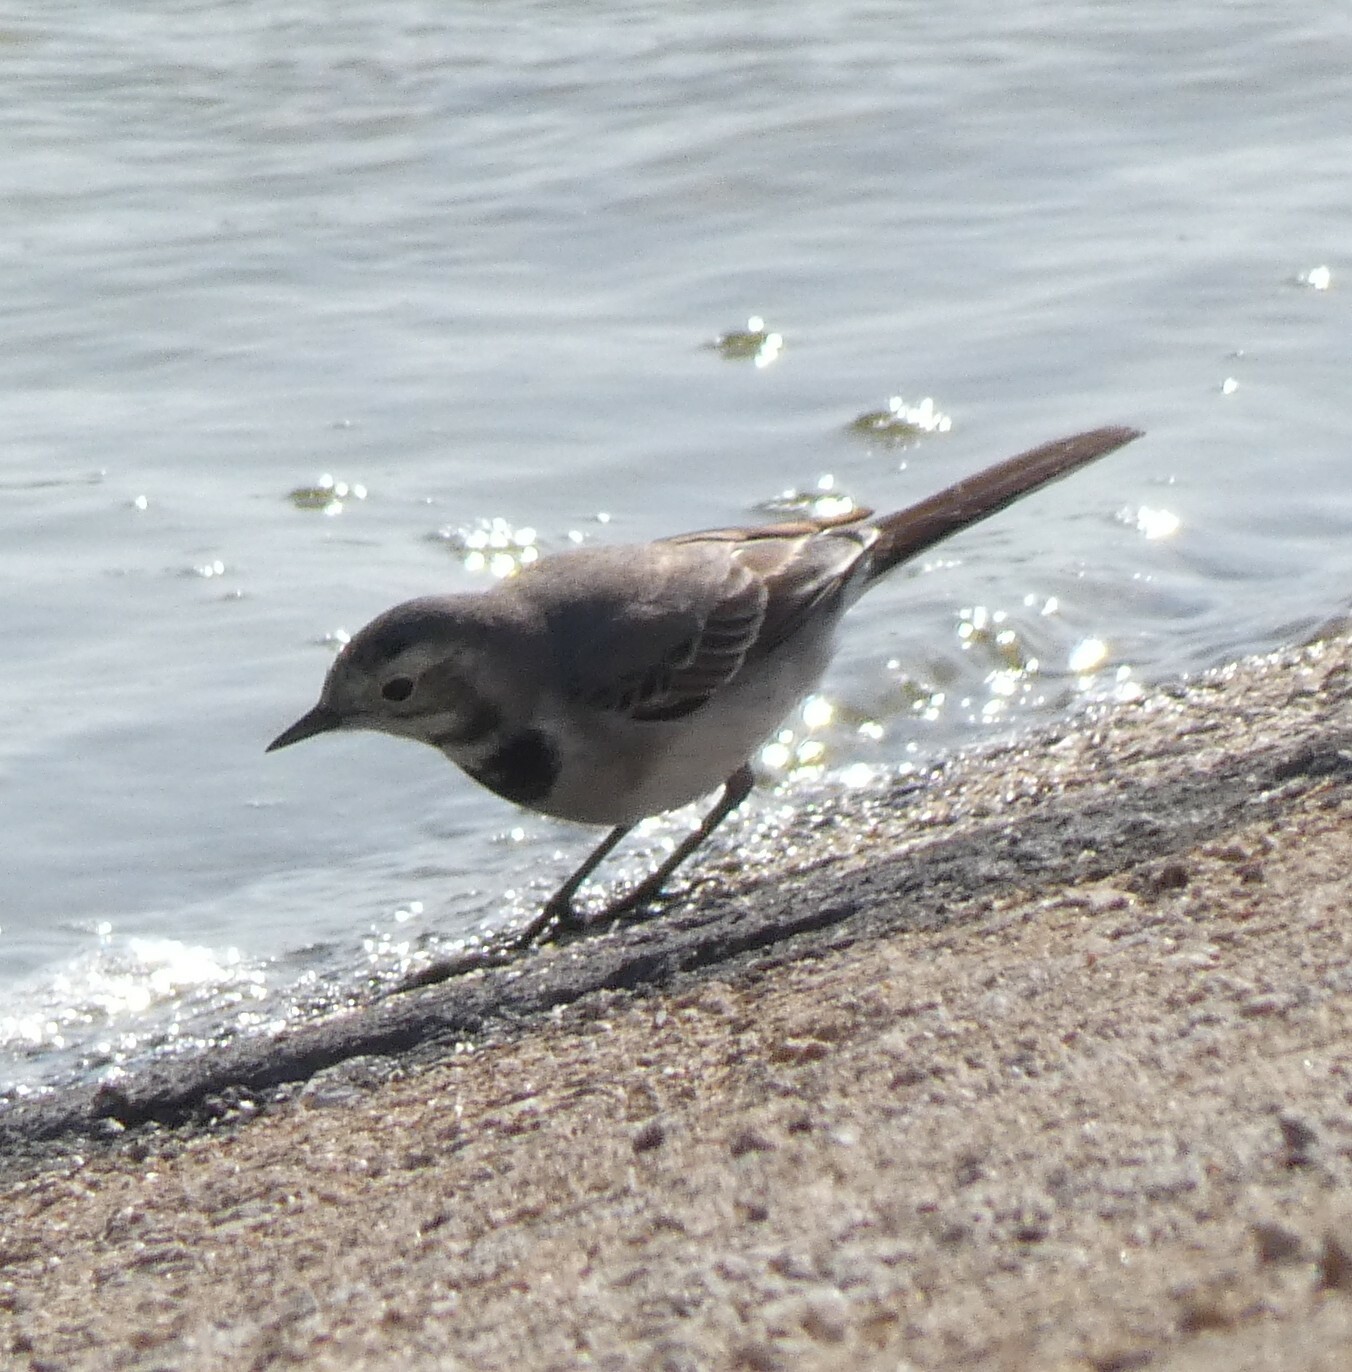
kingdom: Animalia
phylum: Chordata
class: Aves
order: Passeriformes
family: Motacillidae
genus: Motacilla
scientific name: Motacilla alba
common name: White wagtail
